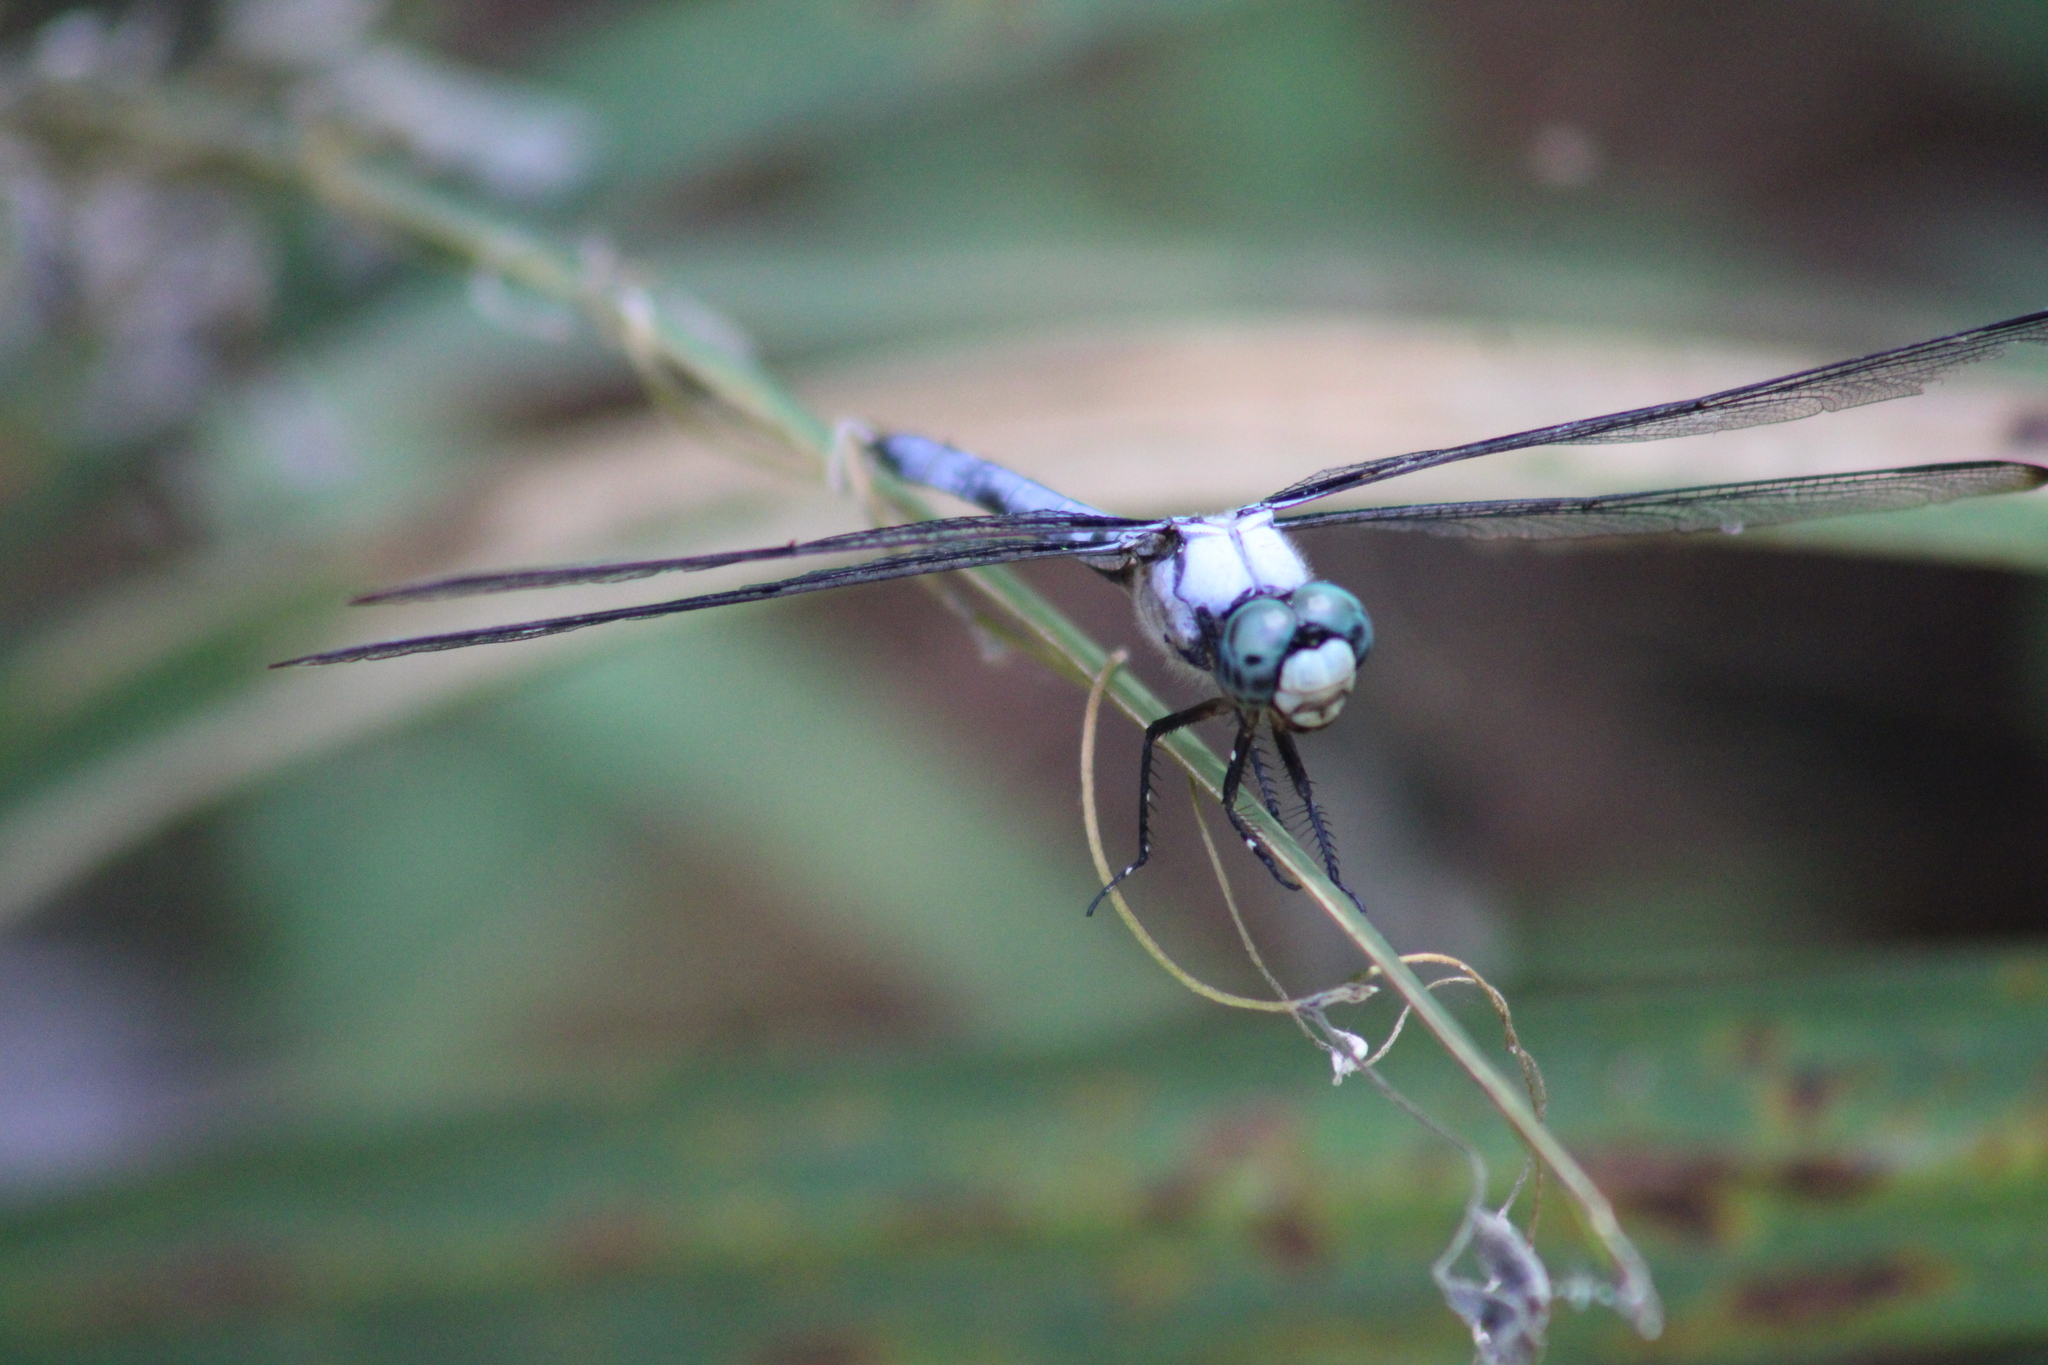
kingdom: Animalia
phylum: Arthropoda
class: Insecta
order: Odonata
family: Libellulidae
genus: Libellula
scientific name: Libellula vibrans
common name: Great blue skimmer
